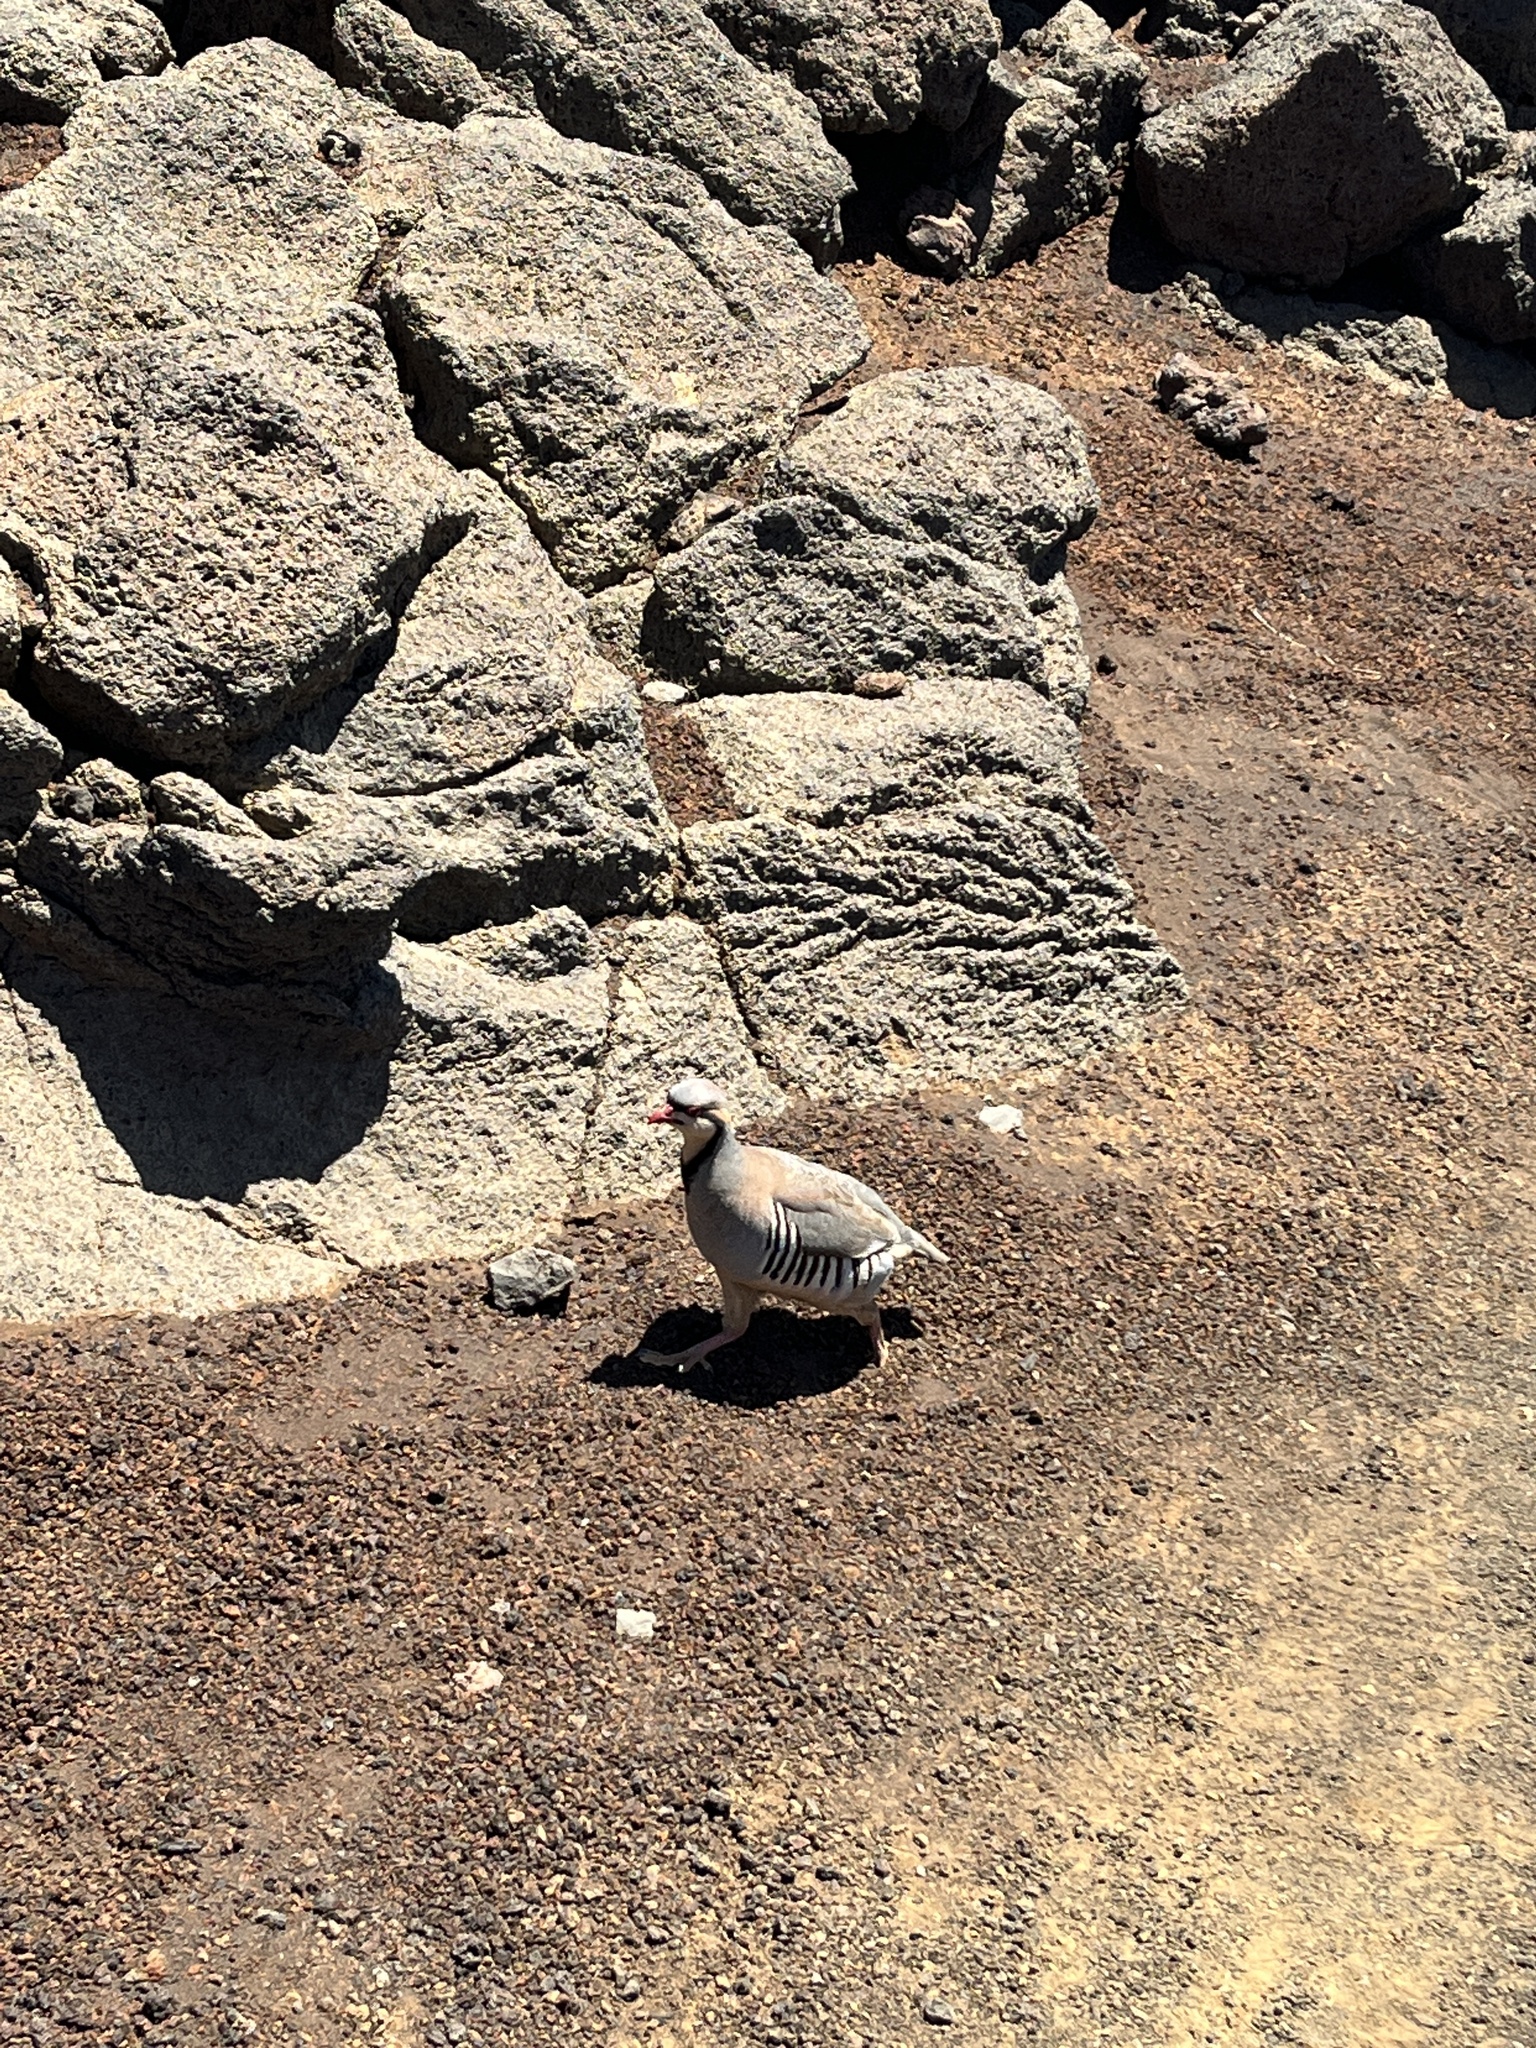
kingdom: Animalia
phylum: Chordata
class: Aves
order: Galliformes
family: Phasianidae
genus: Alectoris
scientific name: Alectoris chukar
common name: Chukar
